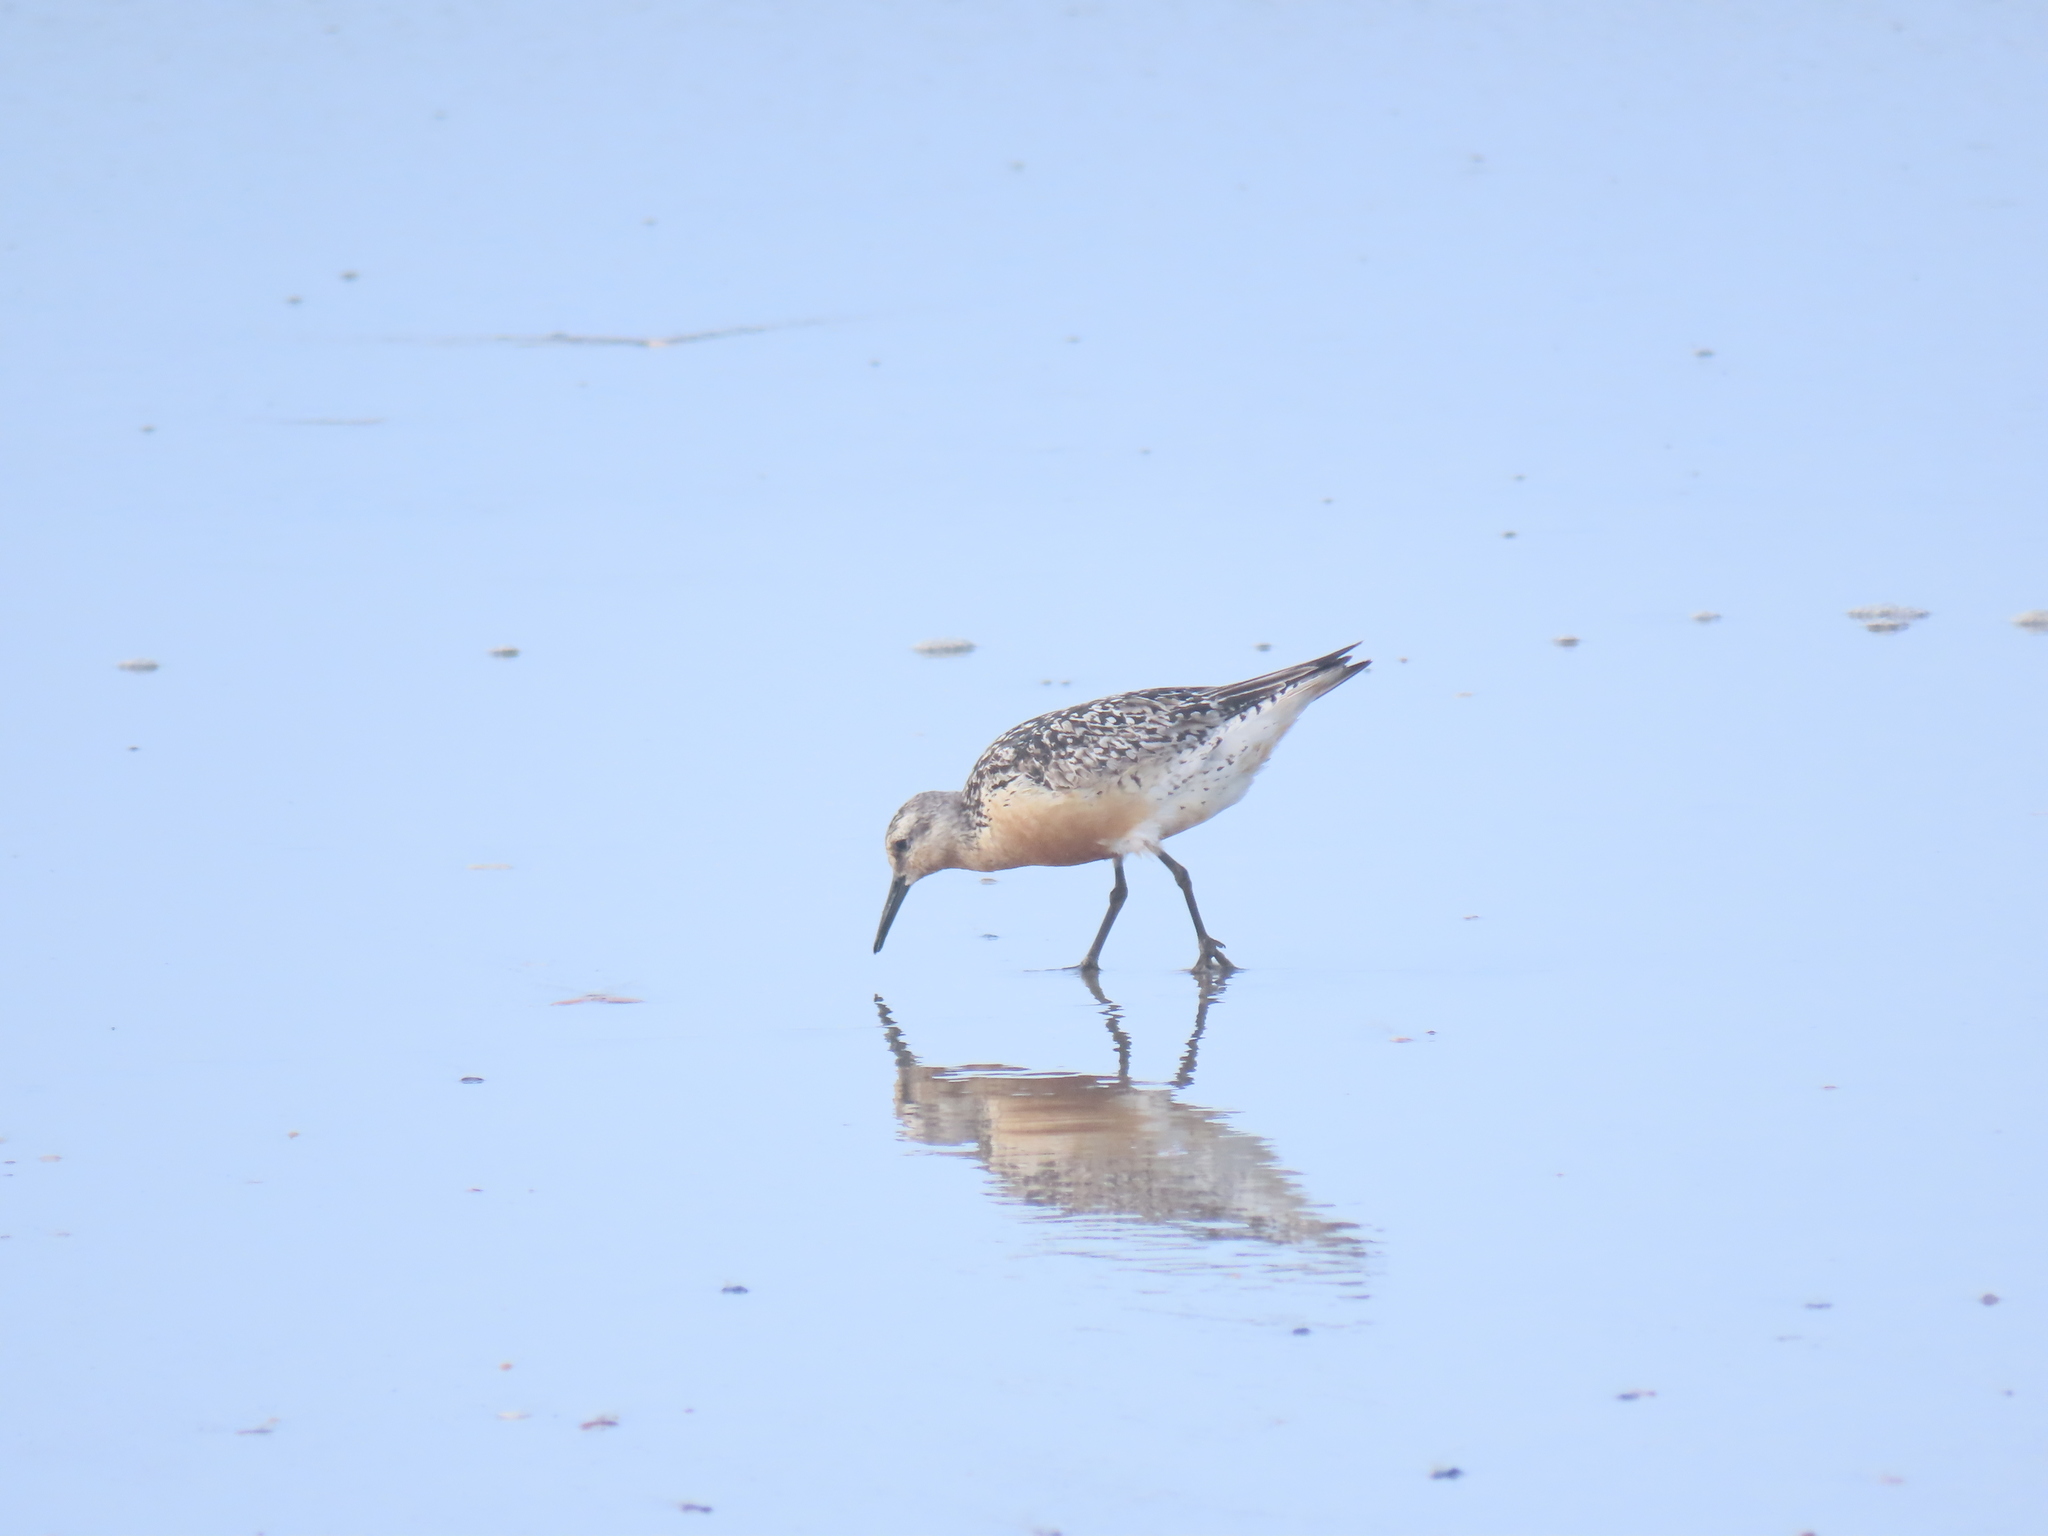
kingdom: Animalia
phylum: Chordata
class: Aves
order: Charadriiformes
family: Scolopacidae
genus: Calidris
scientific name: Calidris canutus
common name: Red knot
